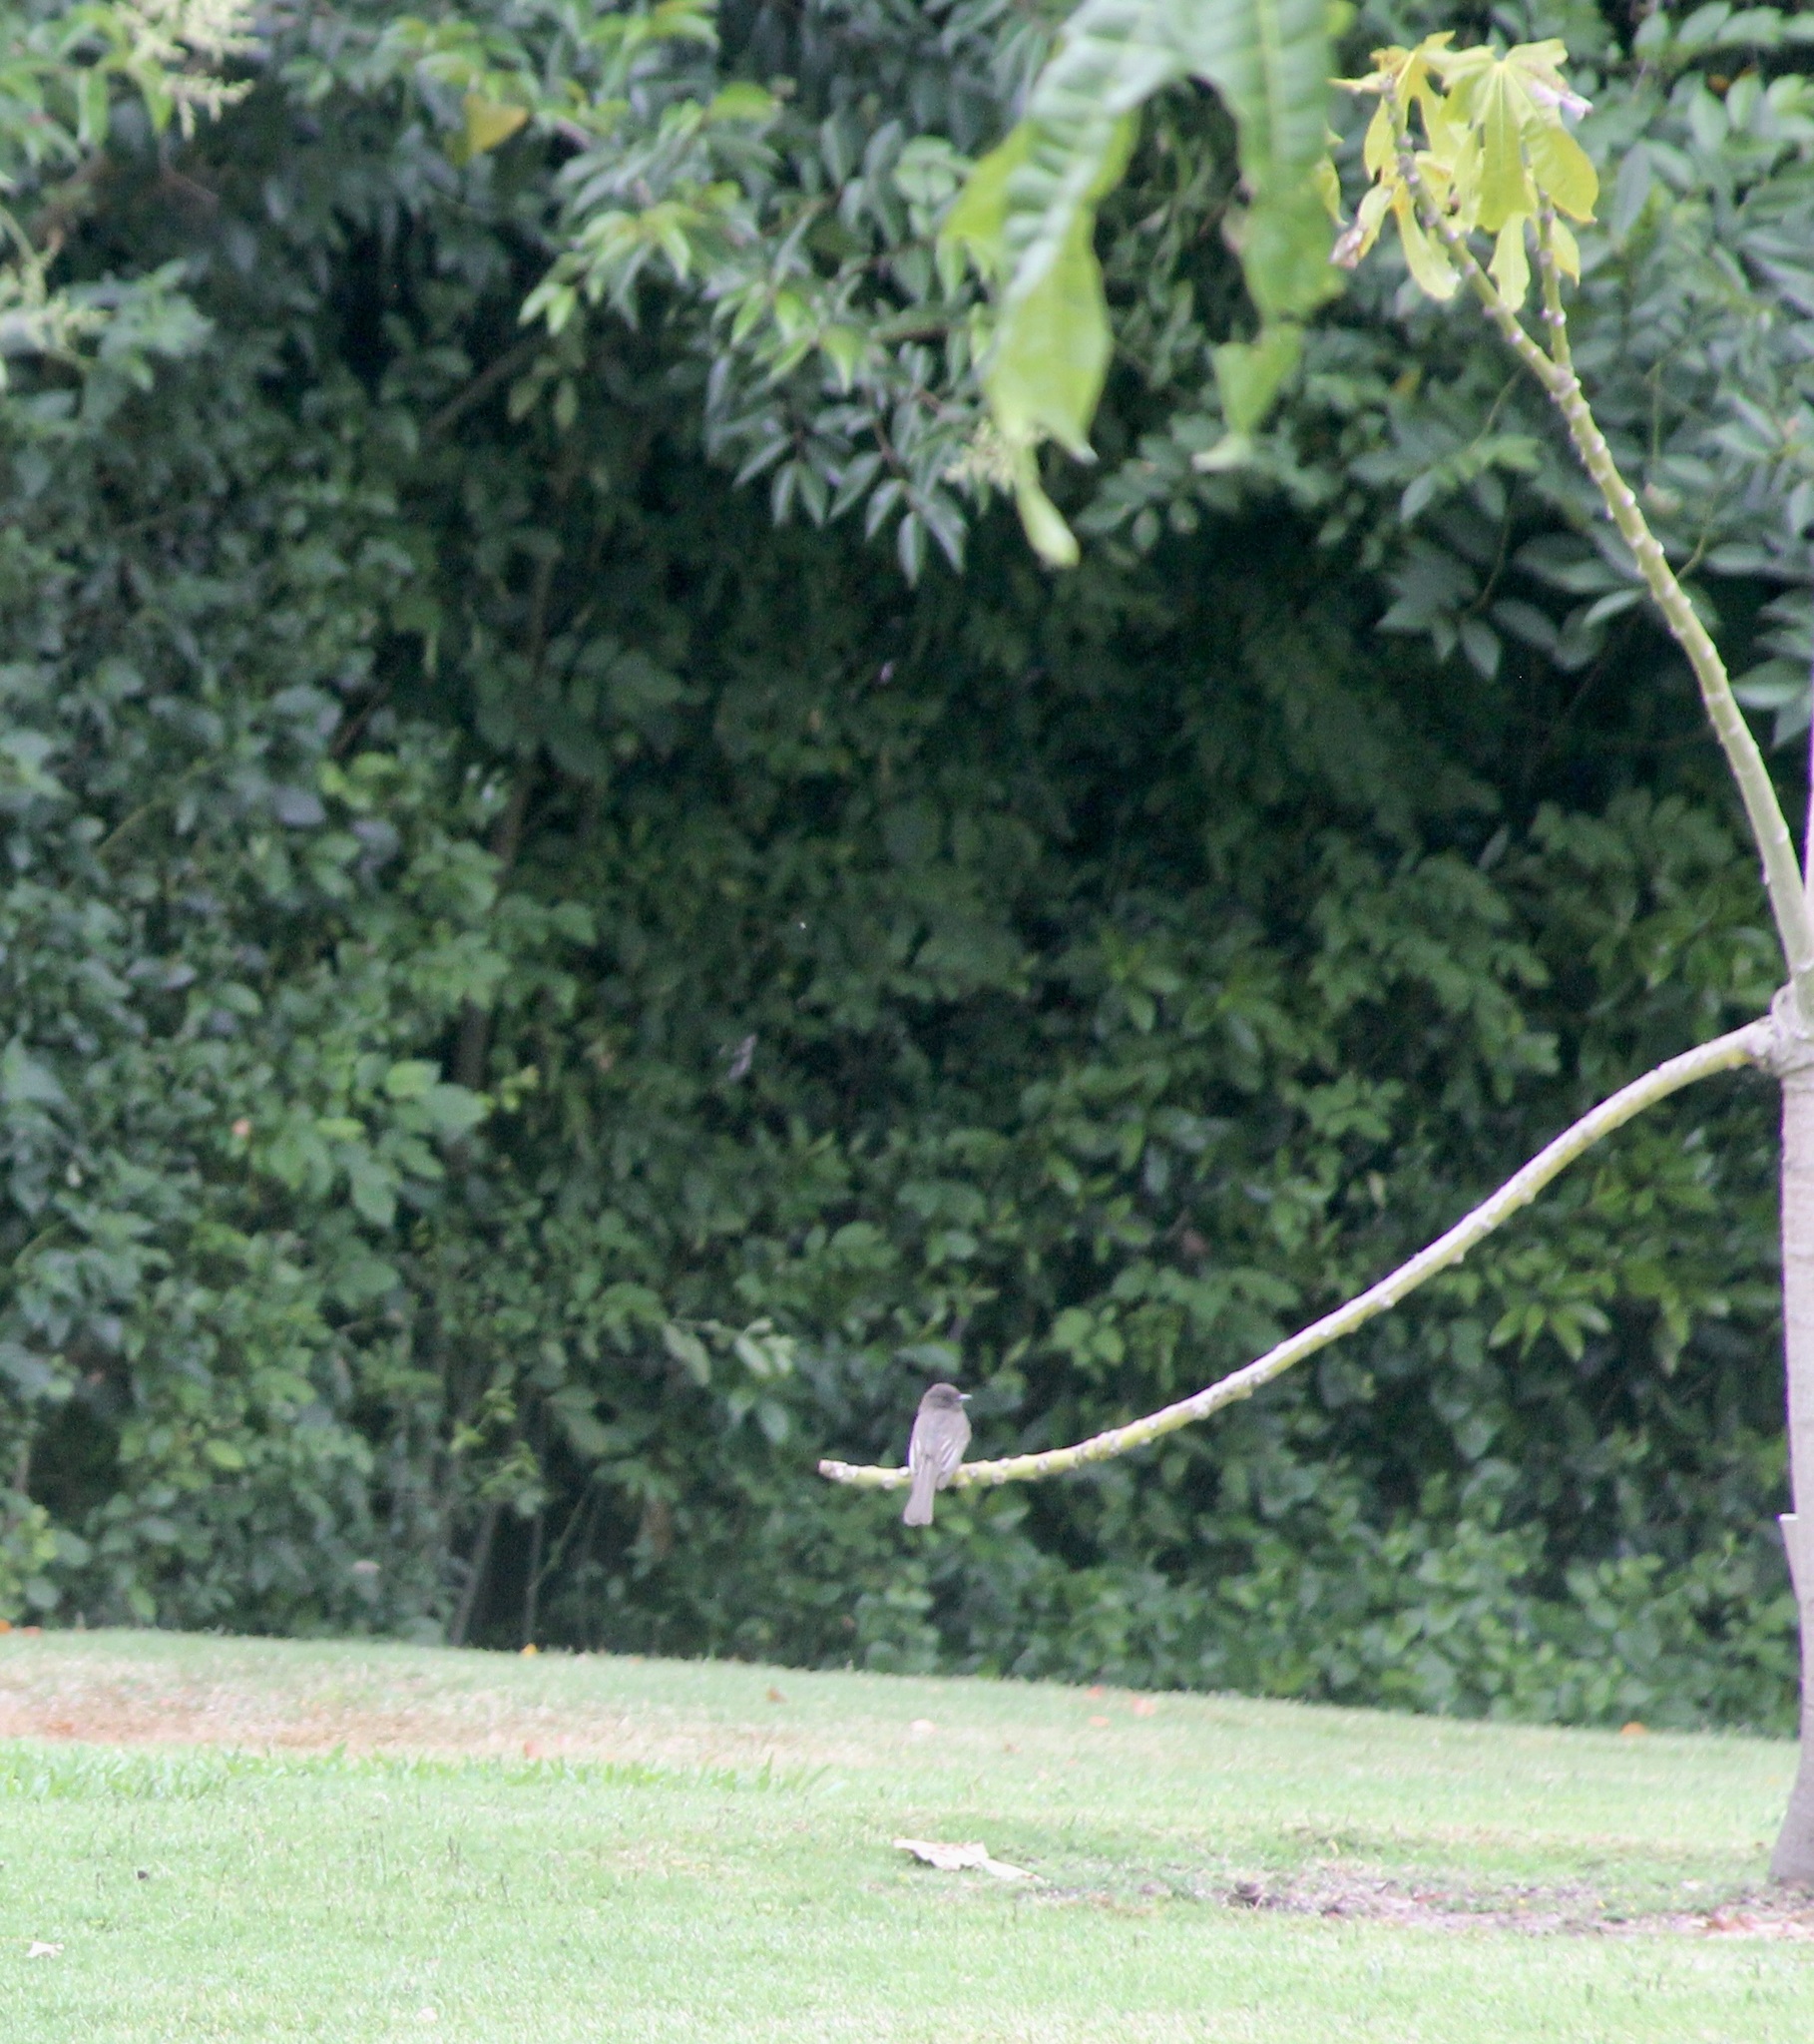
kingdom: Animalia
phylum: Chordata
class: Aves
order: Passeriformes
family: Tyrannidae
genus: Sayornis
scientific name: Sayornis nigricans
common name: Black phoebe
